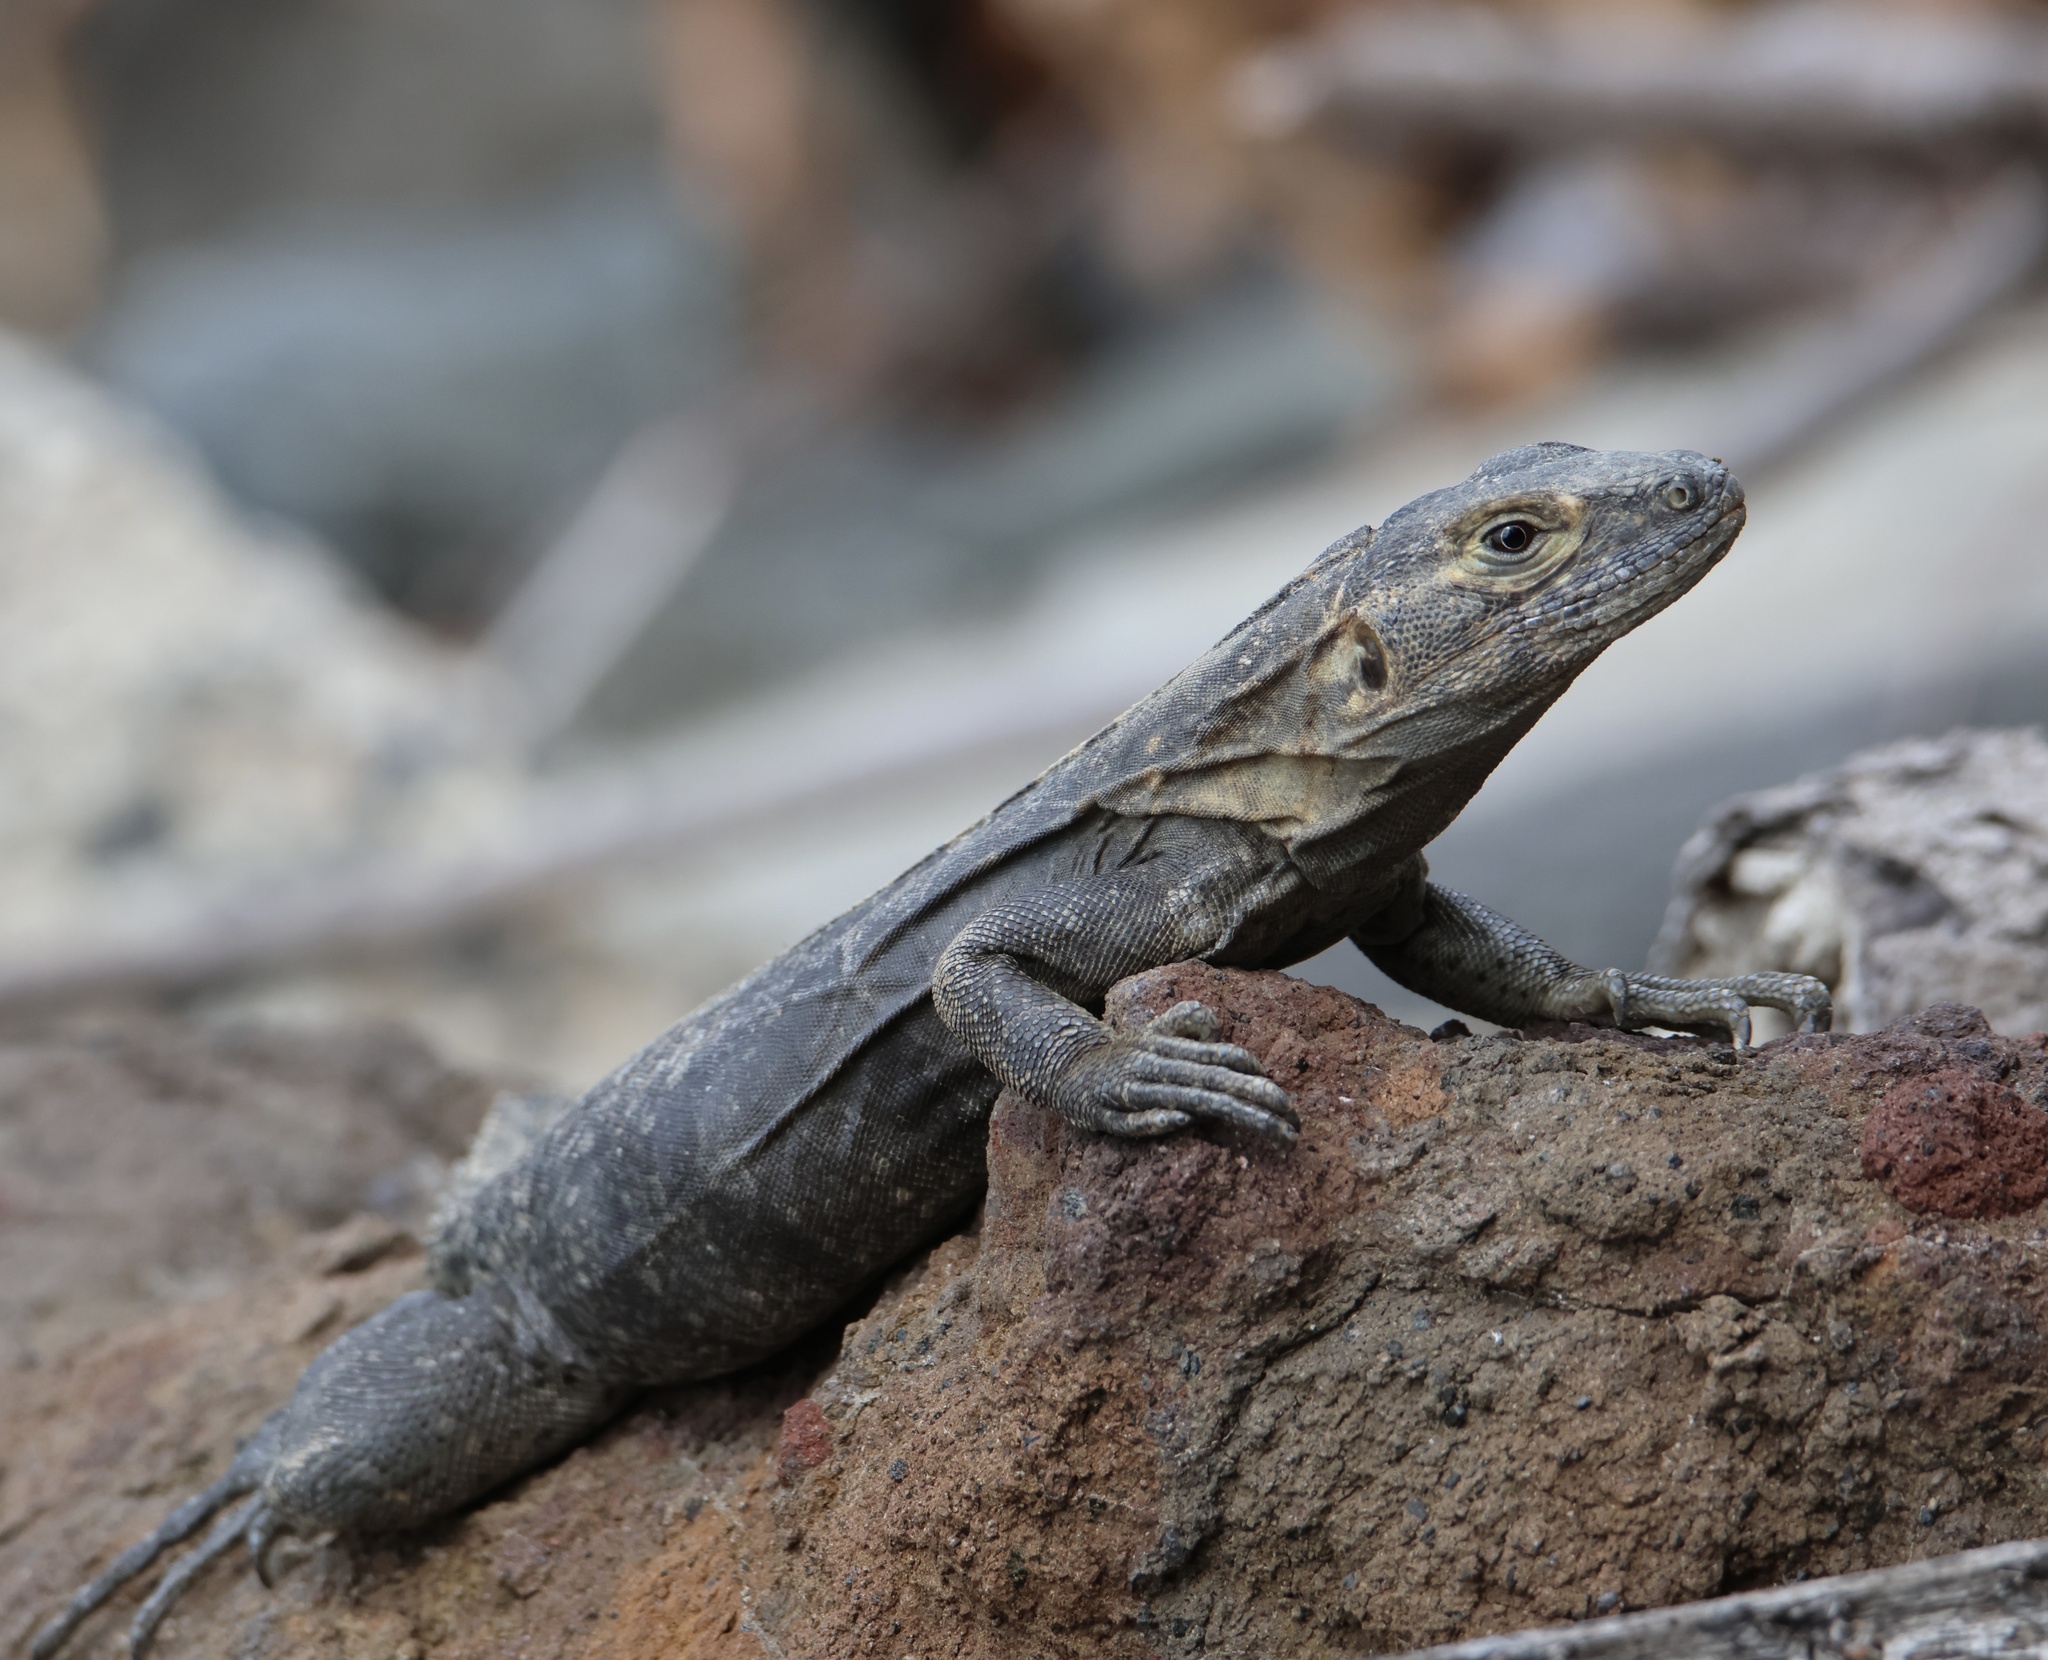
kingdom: Animalia
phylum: Chordata
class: Squamata
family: Iguanidae
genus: Ctenosaura
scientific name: Ctenosaura similis
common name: Black spiny-tailed iguana
